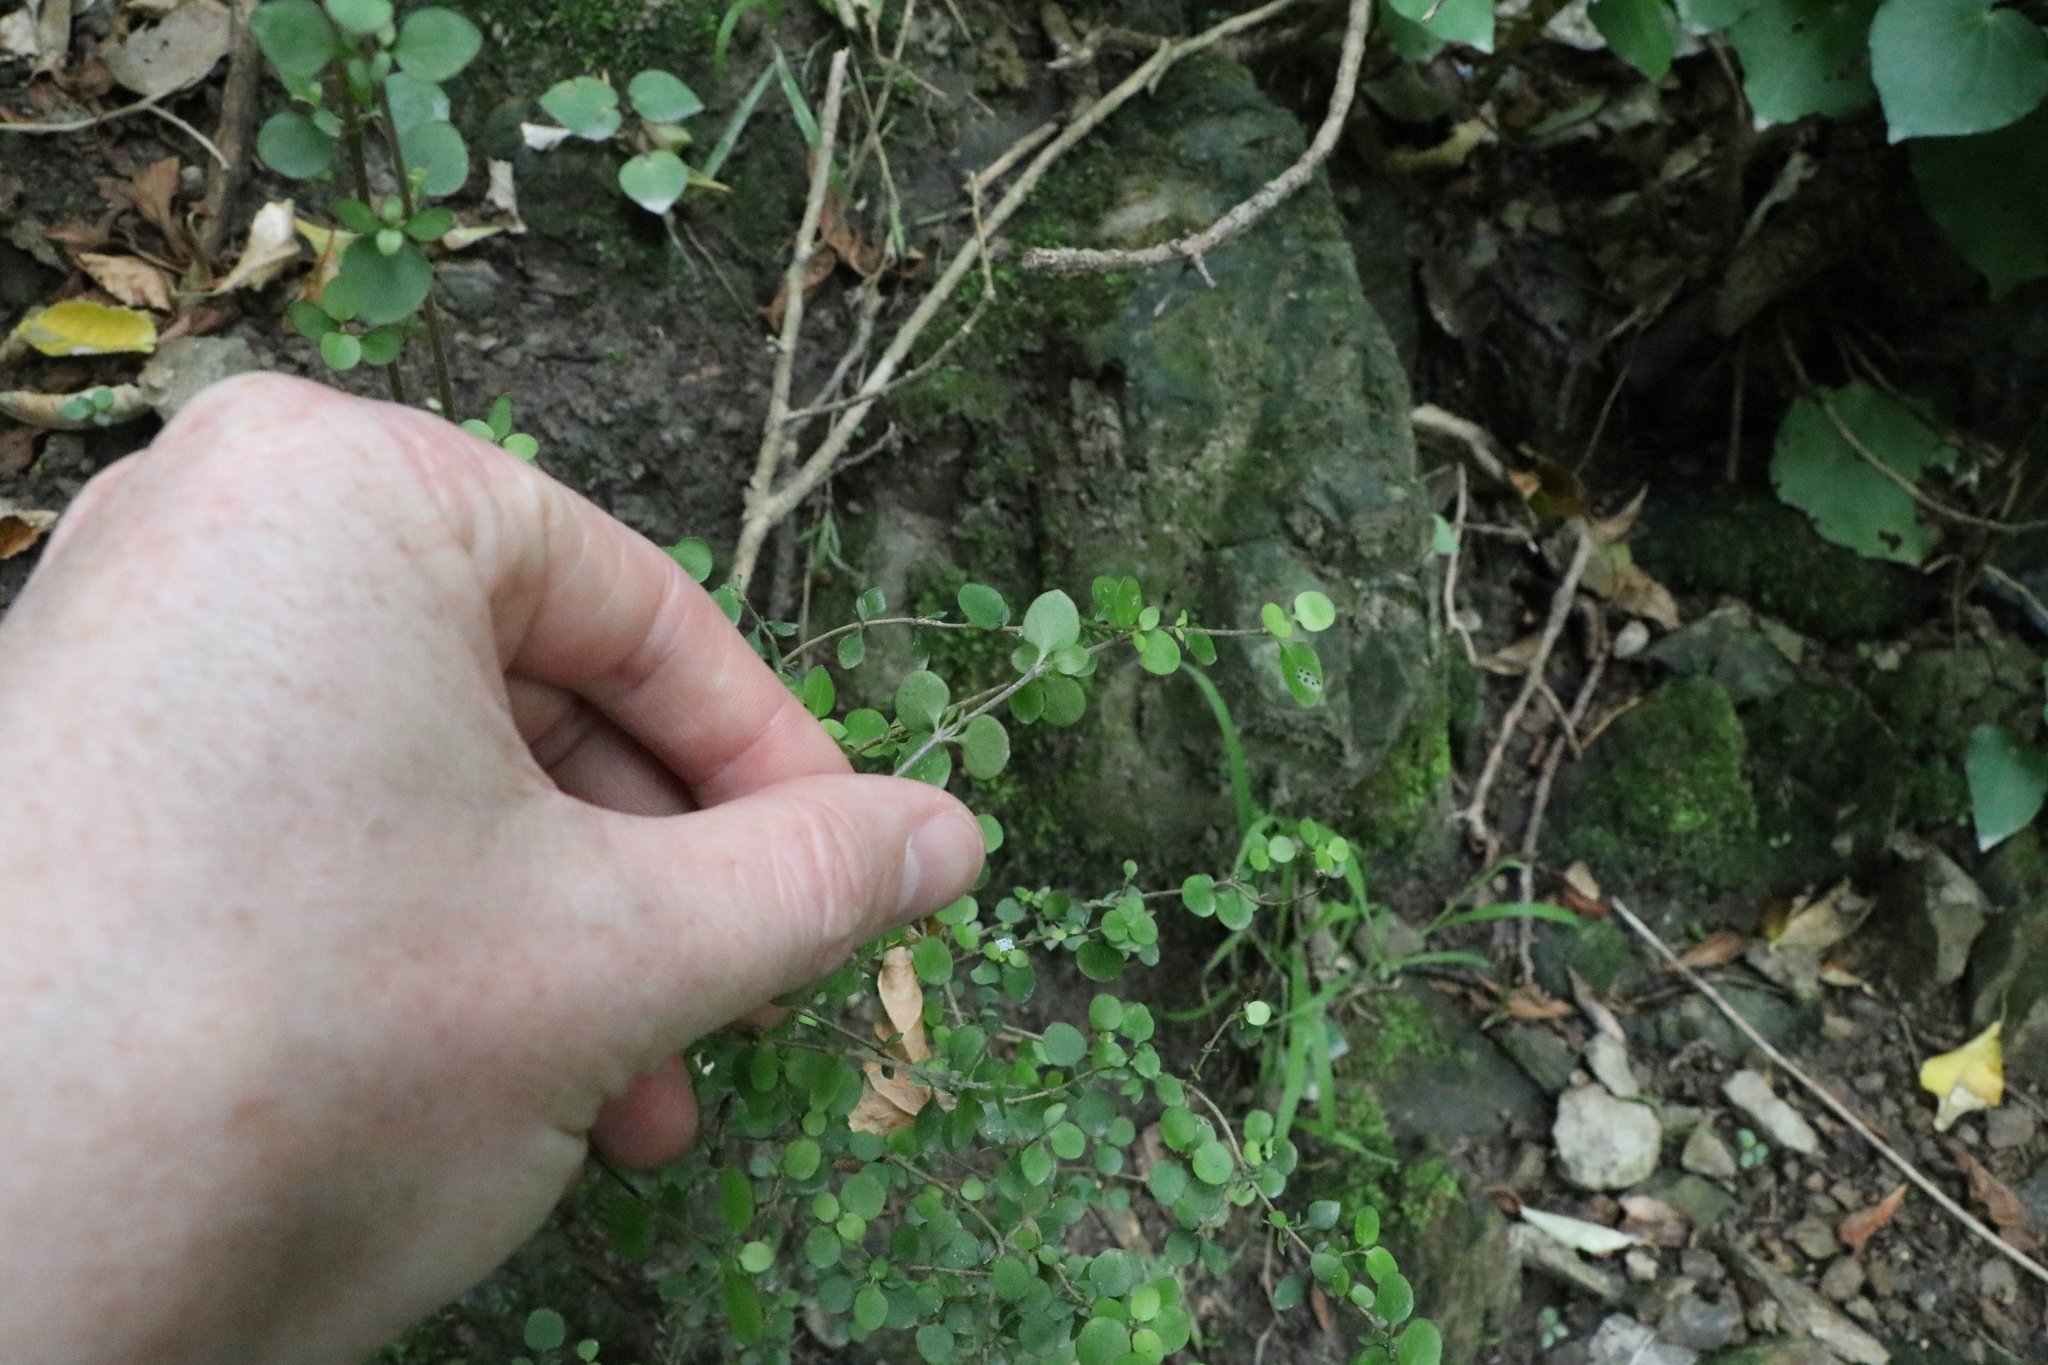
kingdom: Plantae
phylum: Tracheophyta
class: Magnoliopsida
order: Gentianales
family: Rubiaceae
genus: Coprosma
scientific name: Coprosma rhamnoides
